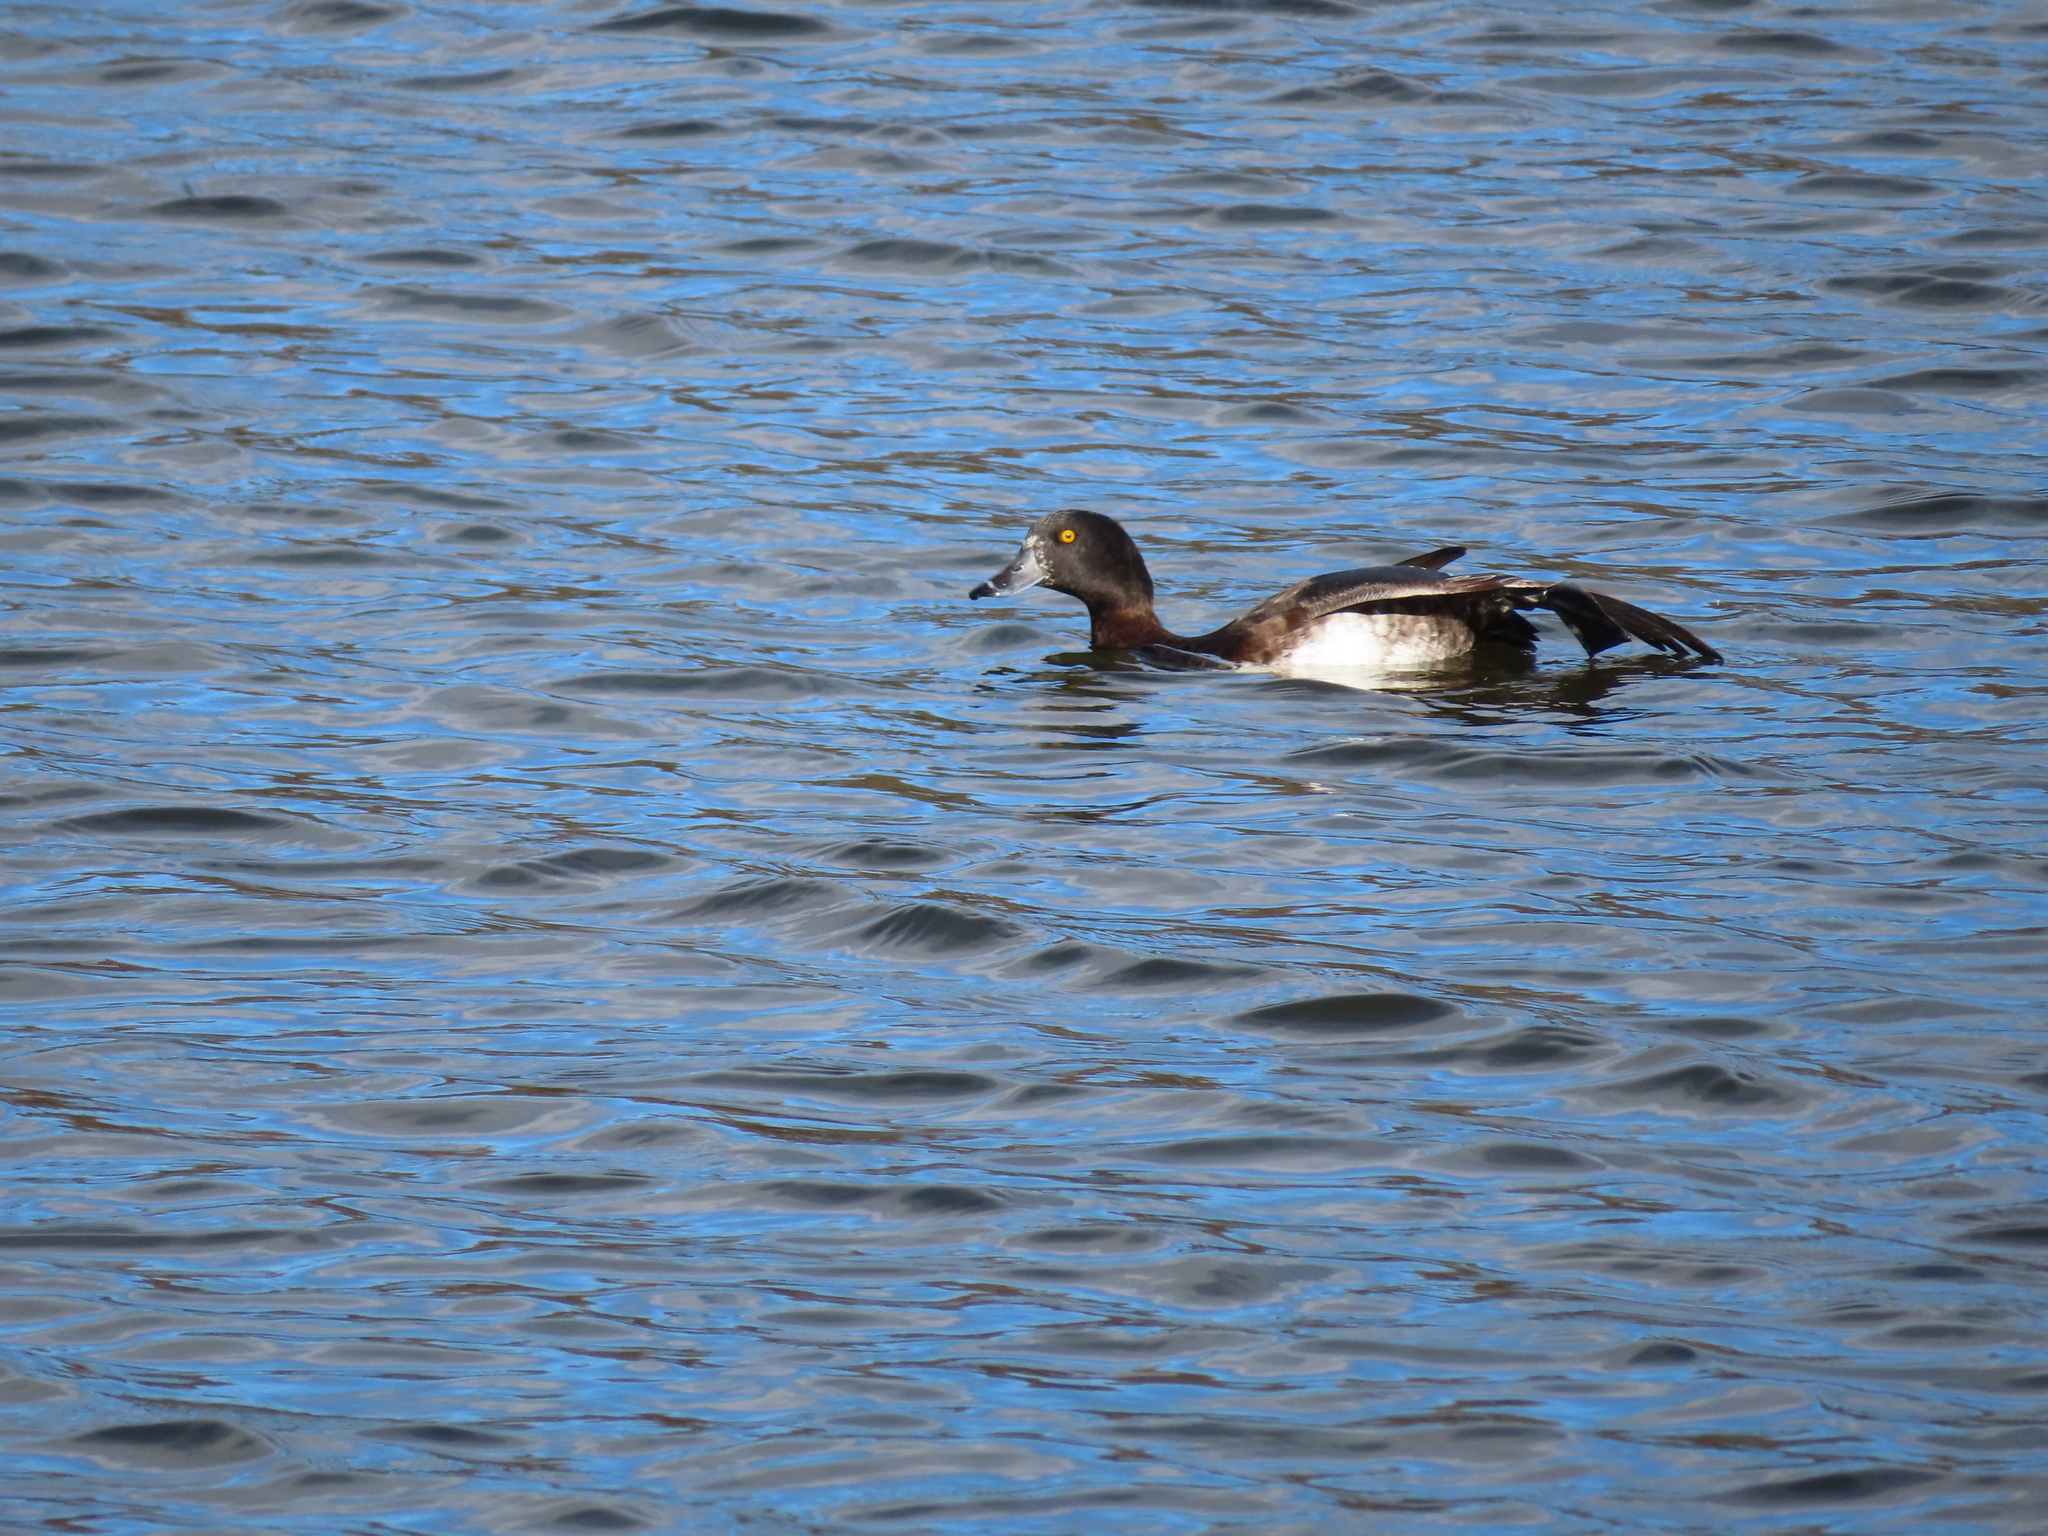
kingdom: Animalia
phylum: Chordata
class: Aves
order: Anseriformes
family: Anatidae
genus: Aythya
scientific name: Aythya fuligula
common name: Tufted duck
